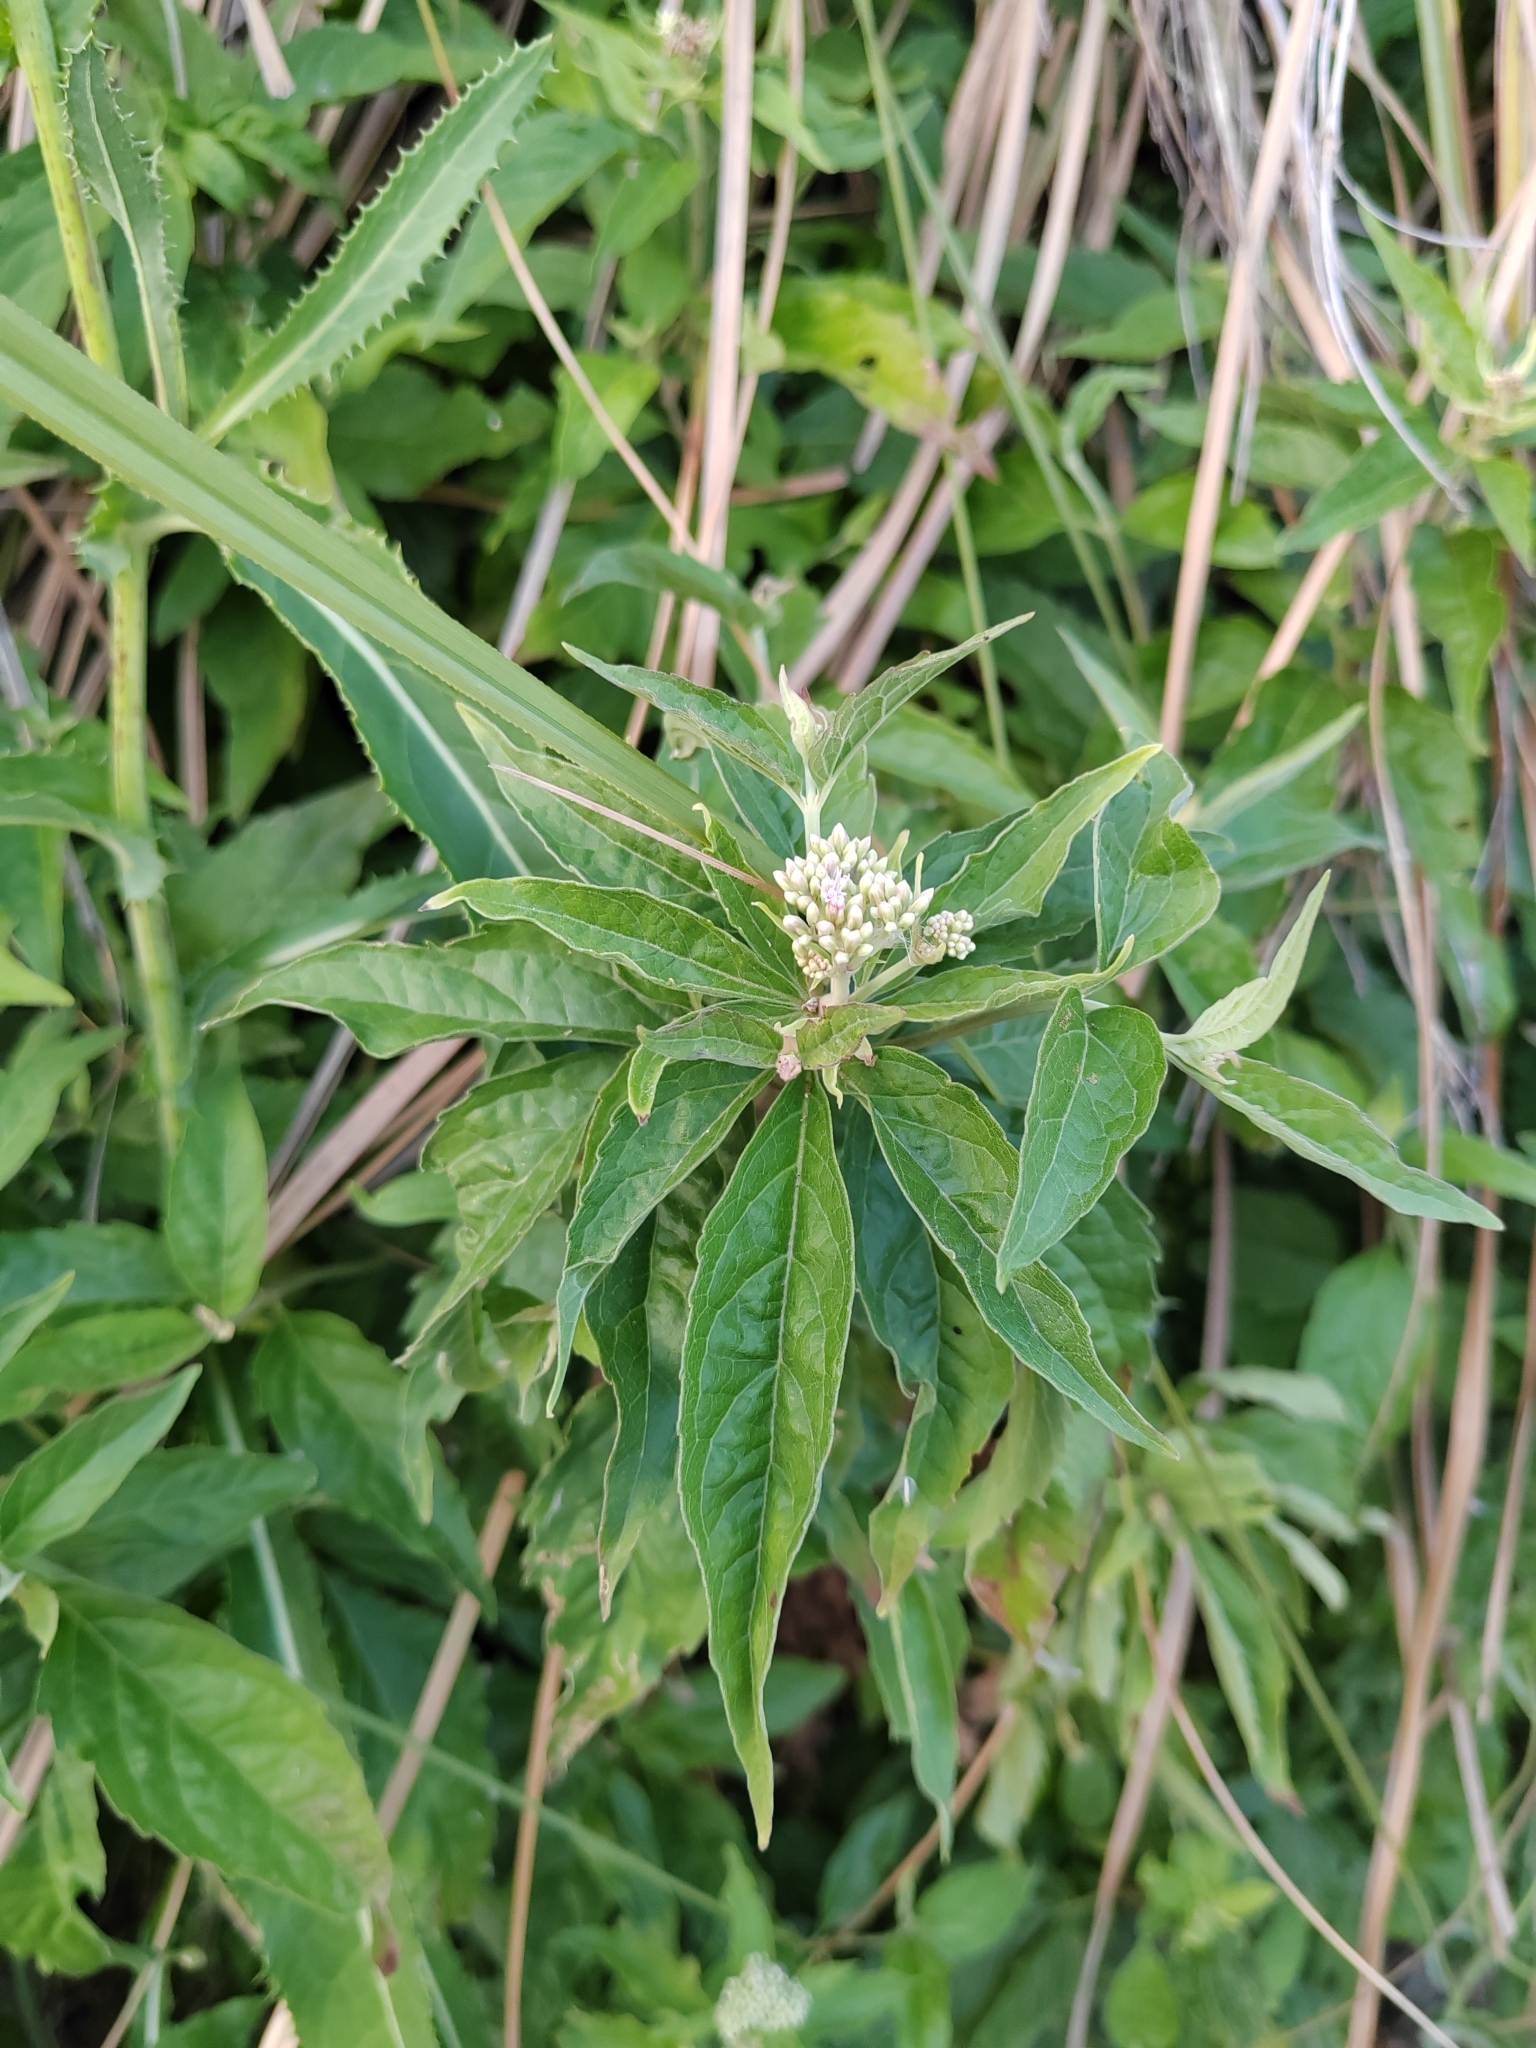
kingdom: Plantae
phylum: Tracheophyta
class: Magnoliopsida
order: Asterales
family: Asteraceae
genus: Eupatorium
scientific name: Eupatorium cannabinum
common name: Hemp-agrimony
